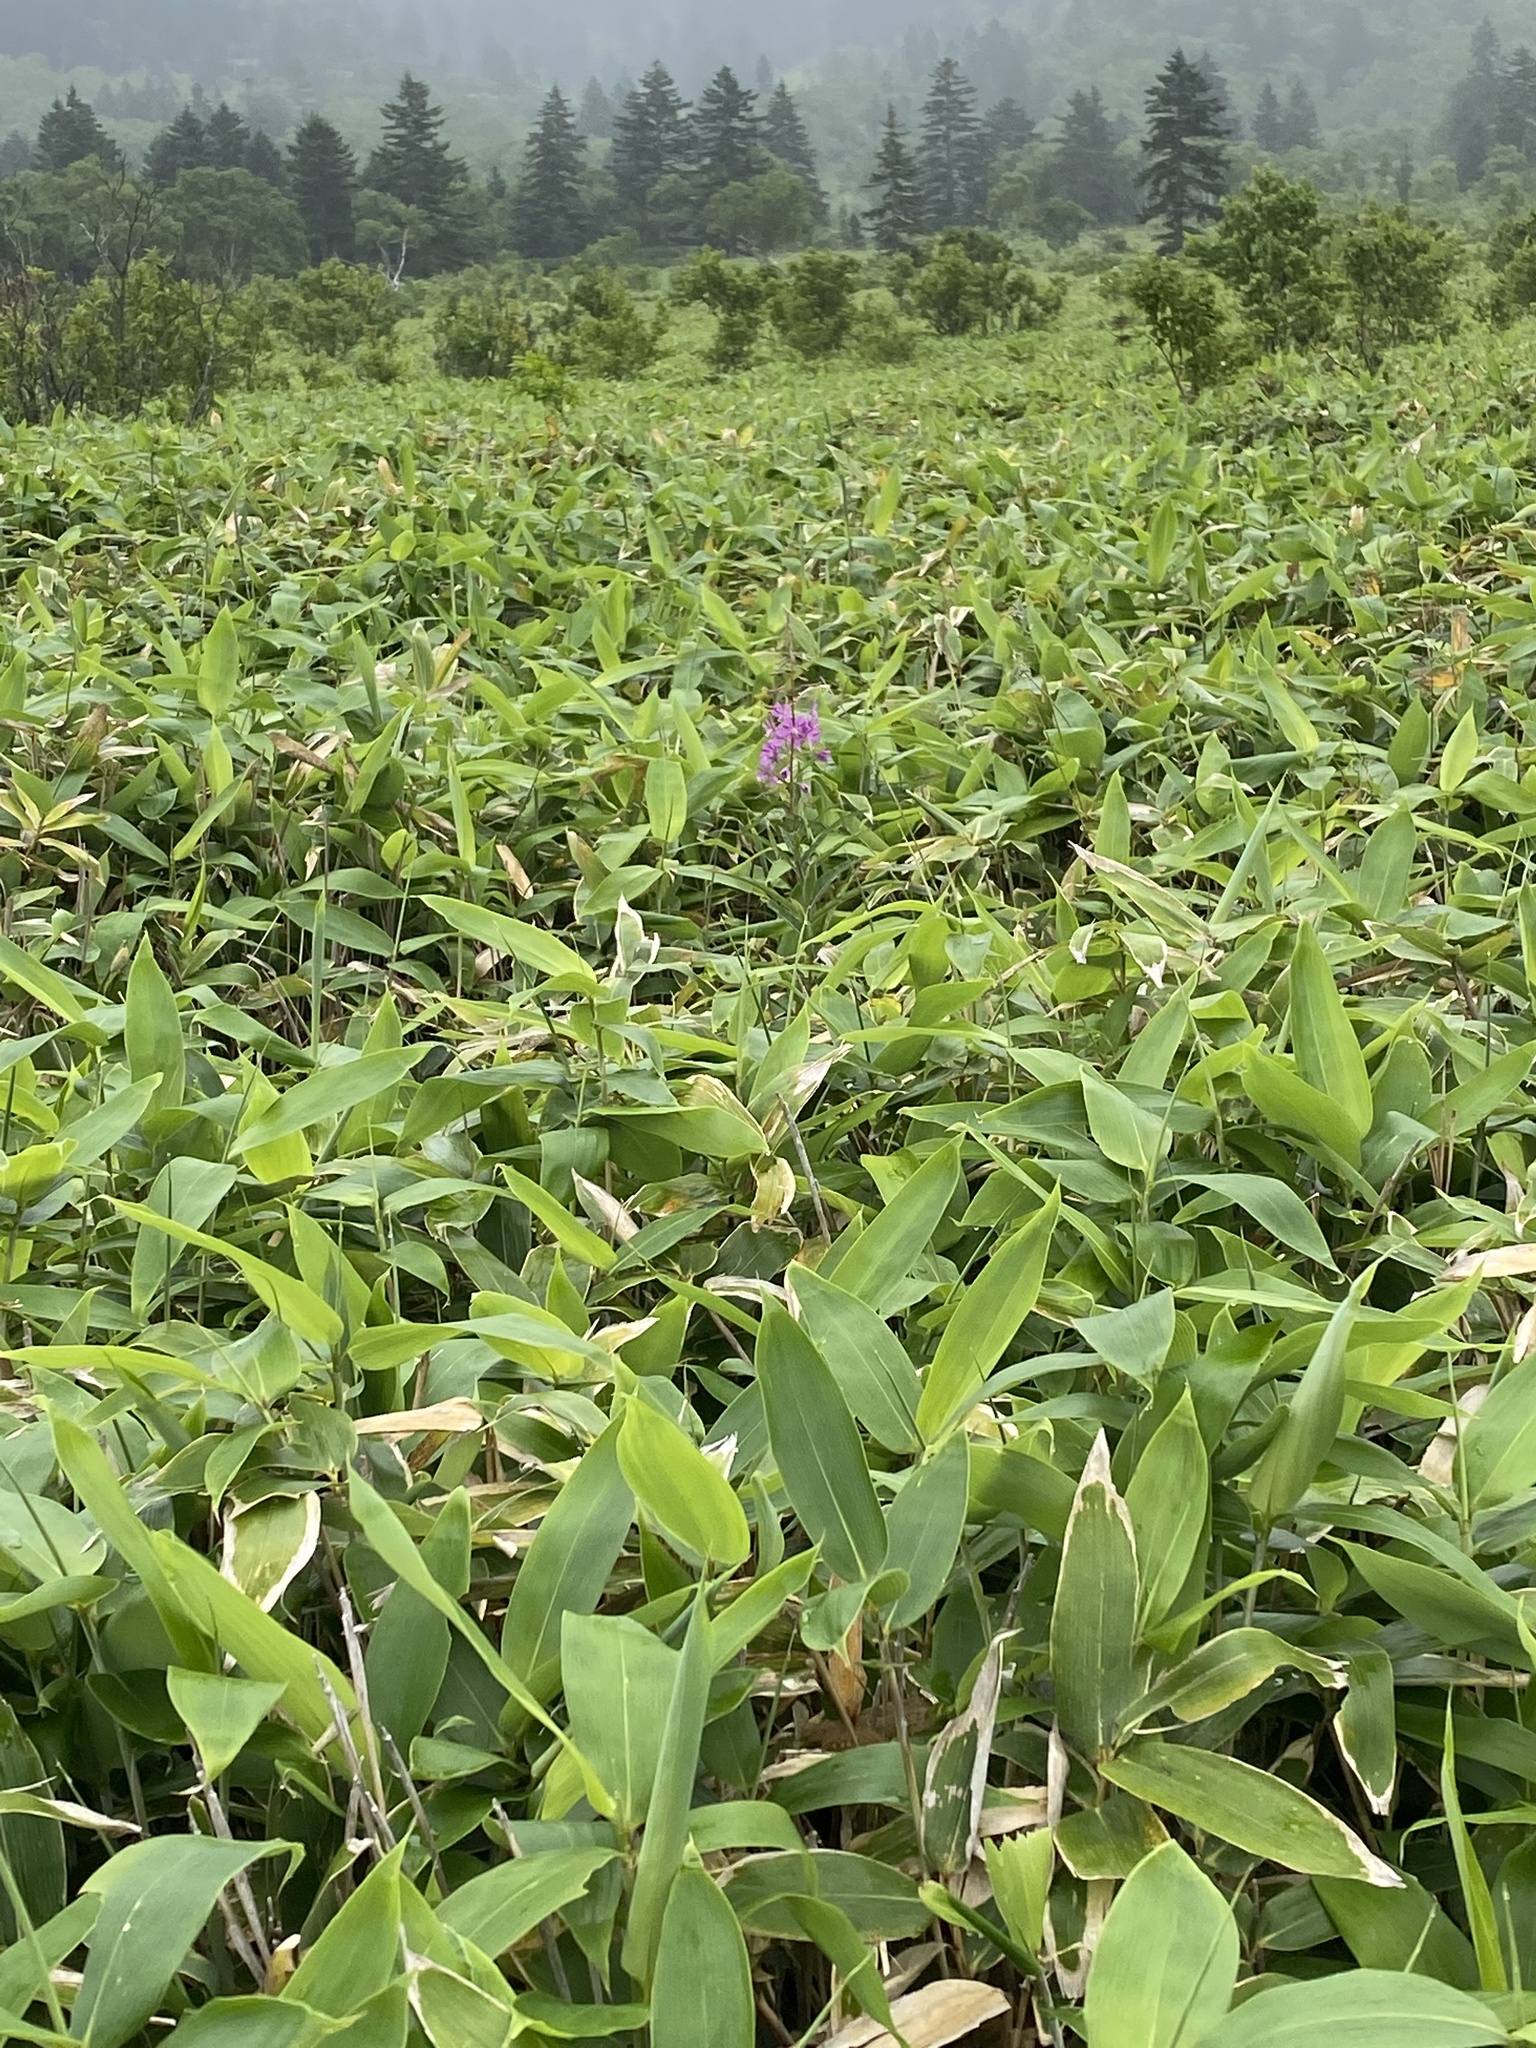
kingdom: Plantae
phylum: Tracheophyta
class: Magnoliopsida
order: Myrtales
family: Onagraceae
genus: Chamaenerion
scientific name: Chamaenerion angustifolium
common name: Fireweed
